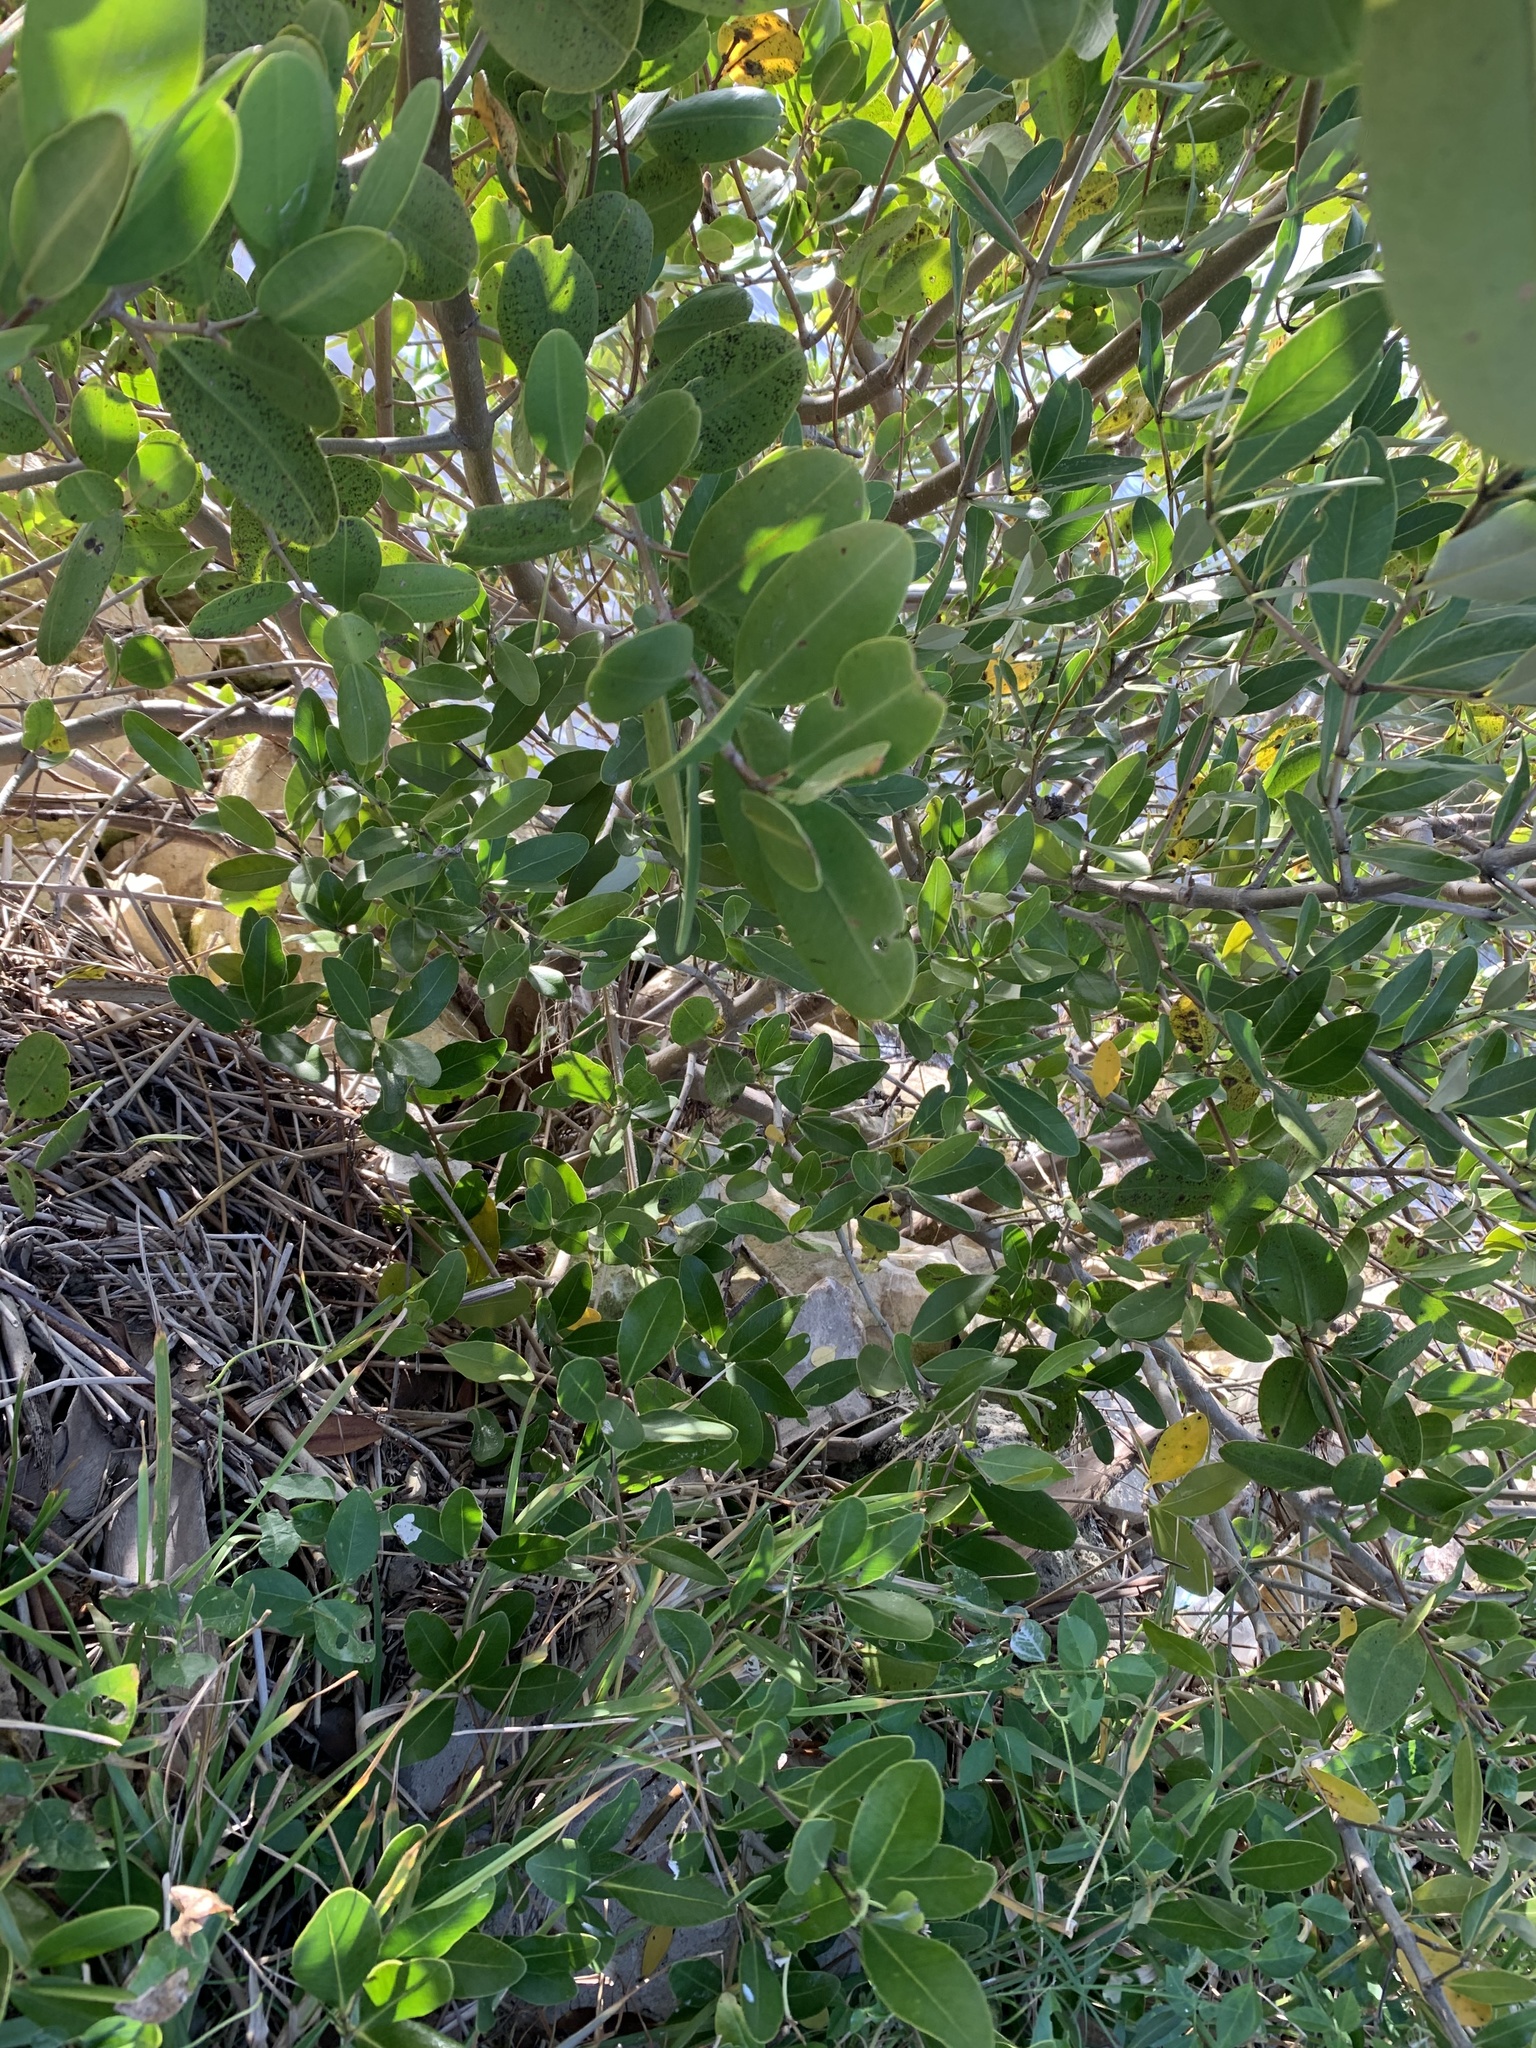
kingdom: Plantae
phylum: Tracheophyta
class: Magnoliopsida
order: Myrtales
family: Combretaceae
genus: Laguncularia
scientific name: Laguncularia racemosa
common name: White mangrove
